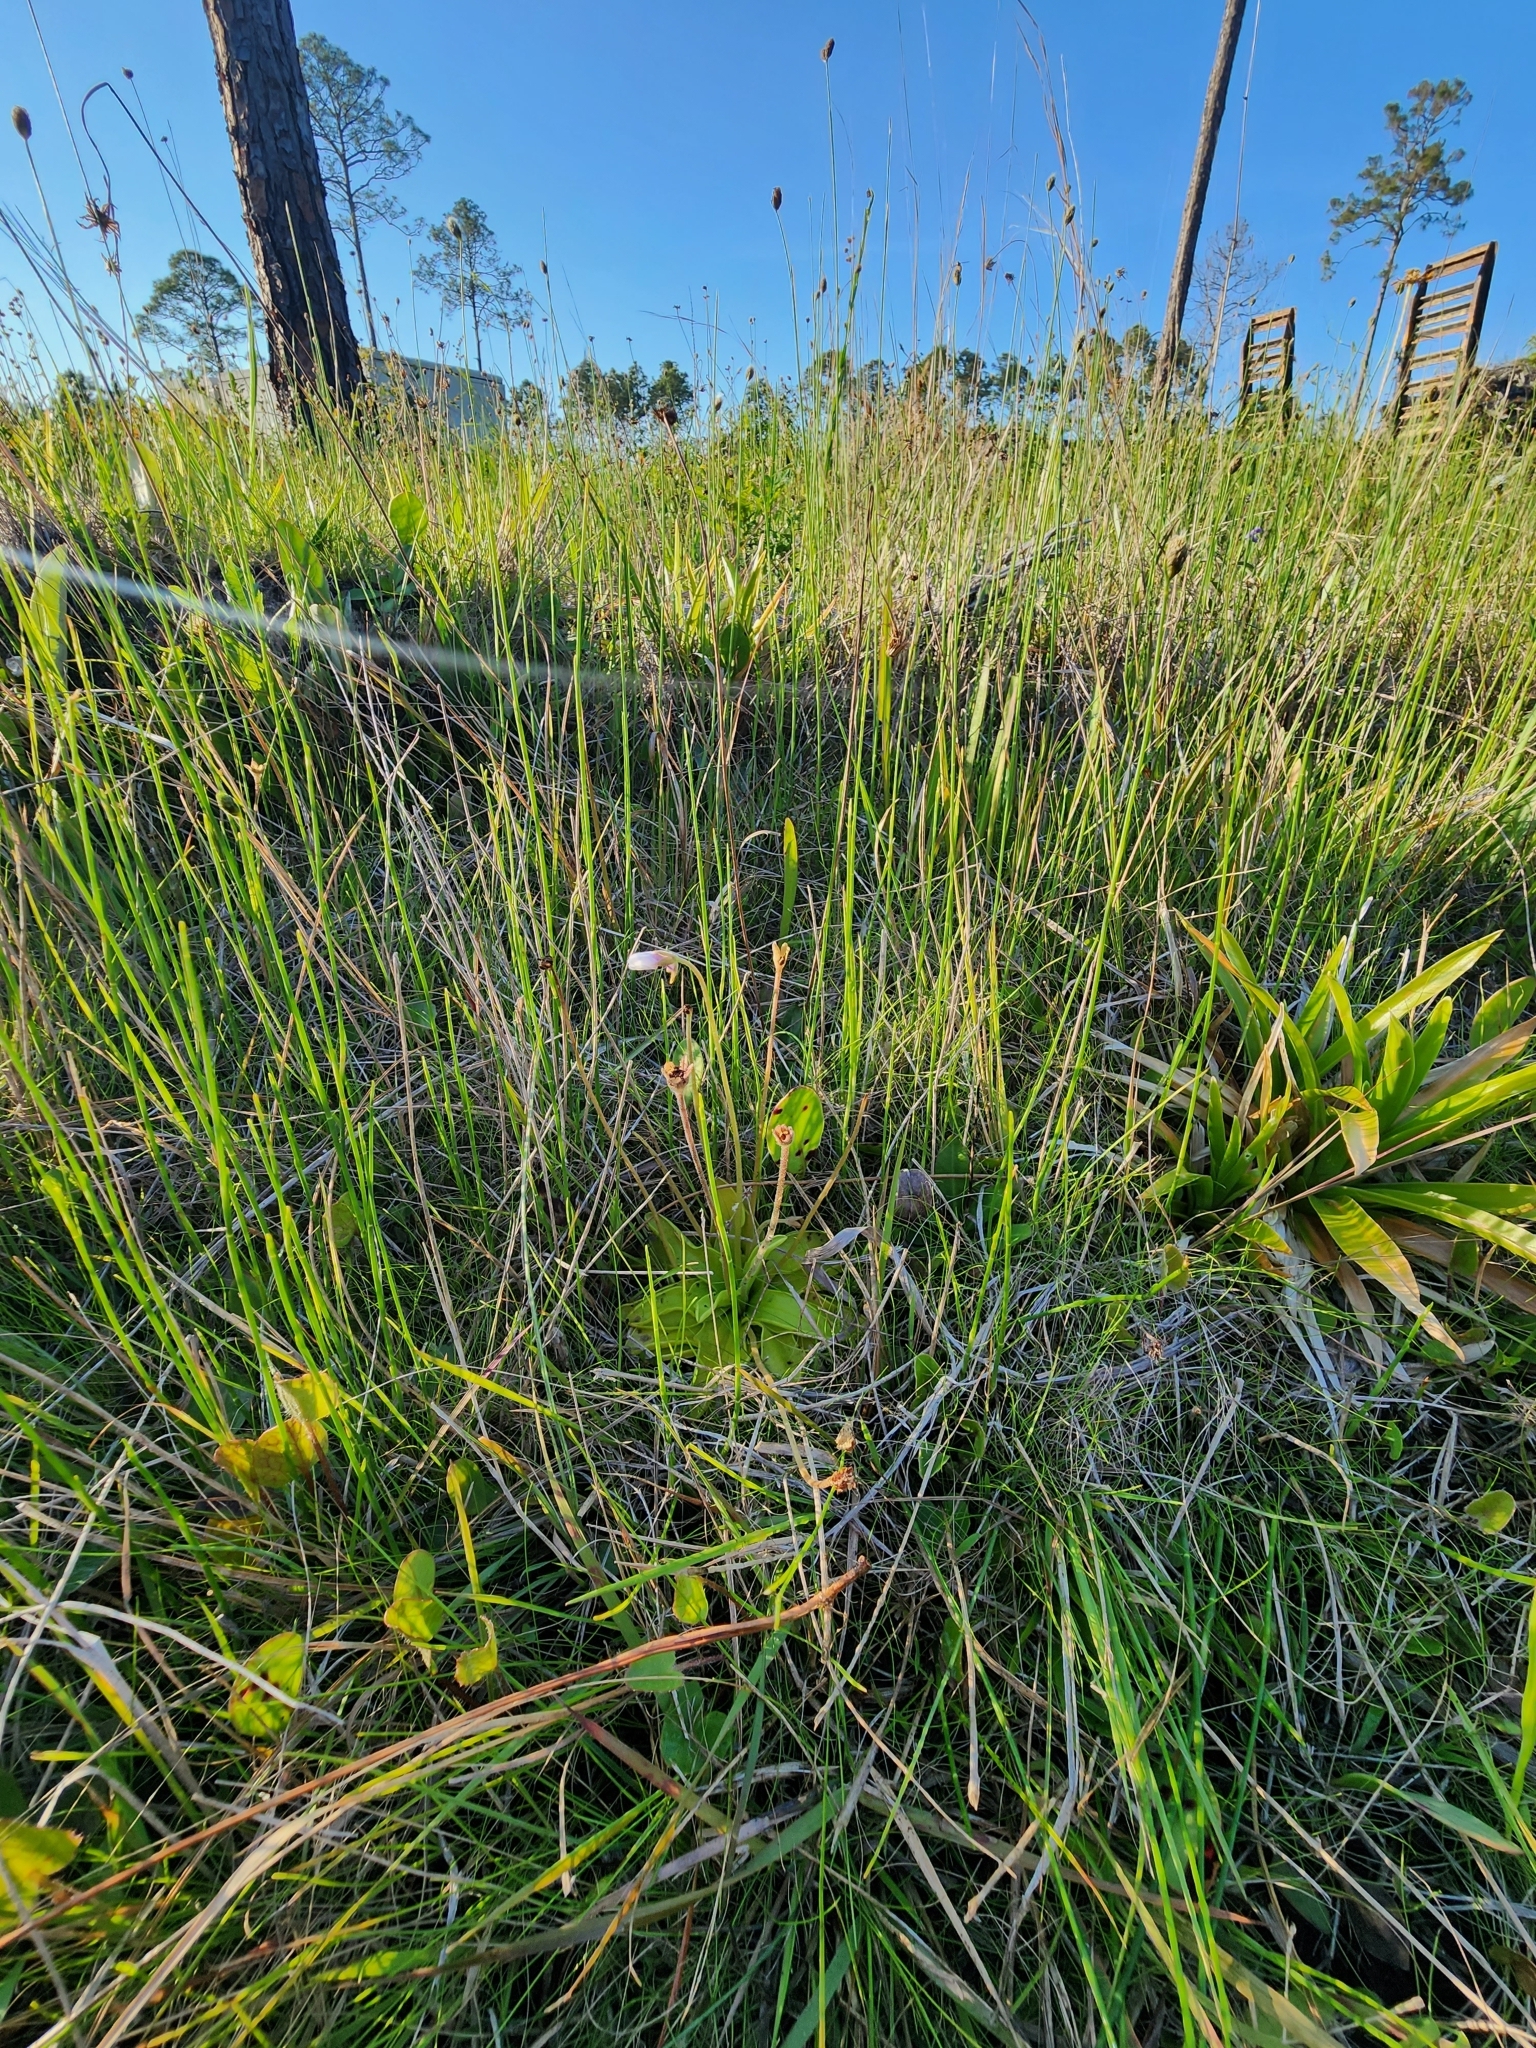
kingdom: Plantae
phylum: Tracheophyta
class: Magnoliopsida
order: Lamiales
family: Lentibulariaceae
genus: Pinguicula
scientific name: Pinguicula ionantha
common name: Godfrey's butterwort
